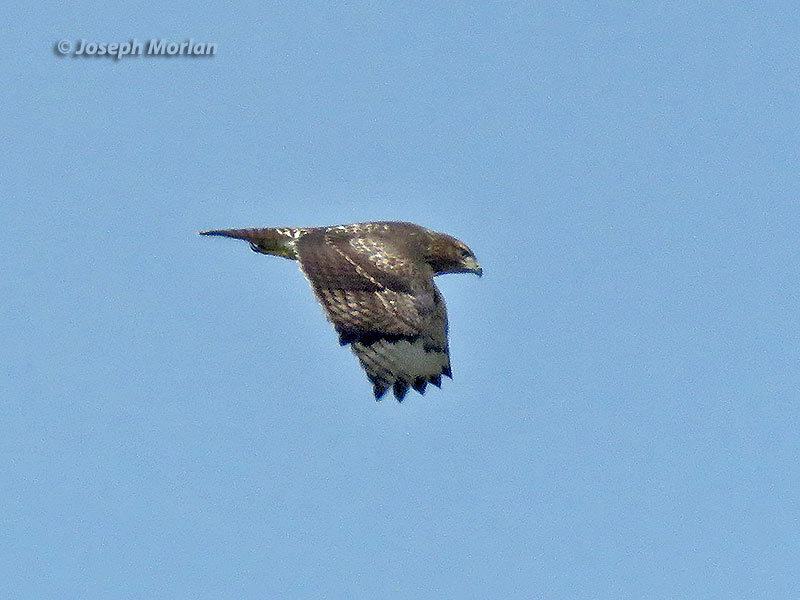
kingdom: Animalia
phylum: Chordata
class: Aves
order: Accipitriformes
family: Accipitridae
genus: Buteo
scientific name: Buteo jamaicensis
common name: Red-tailed hawk
